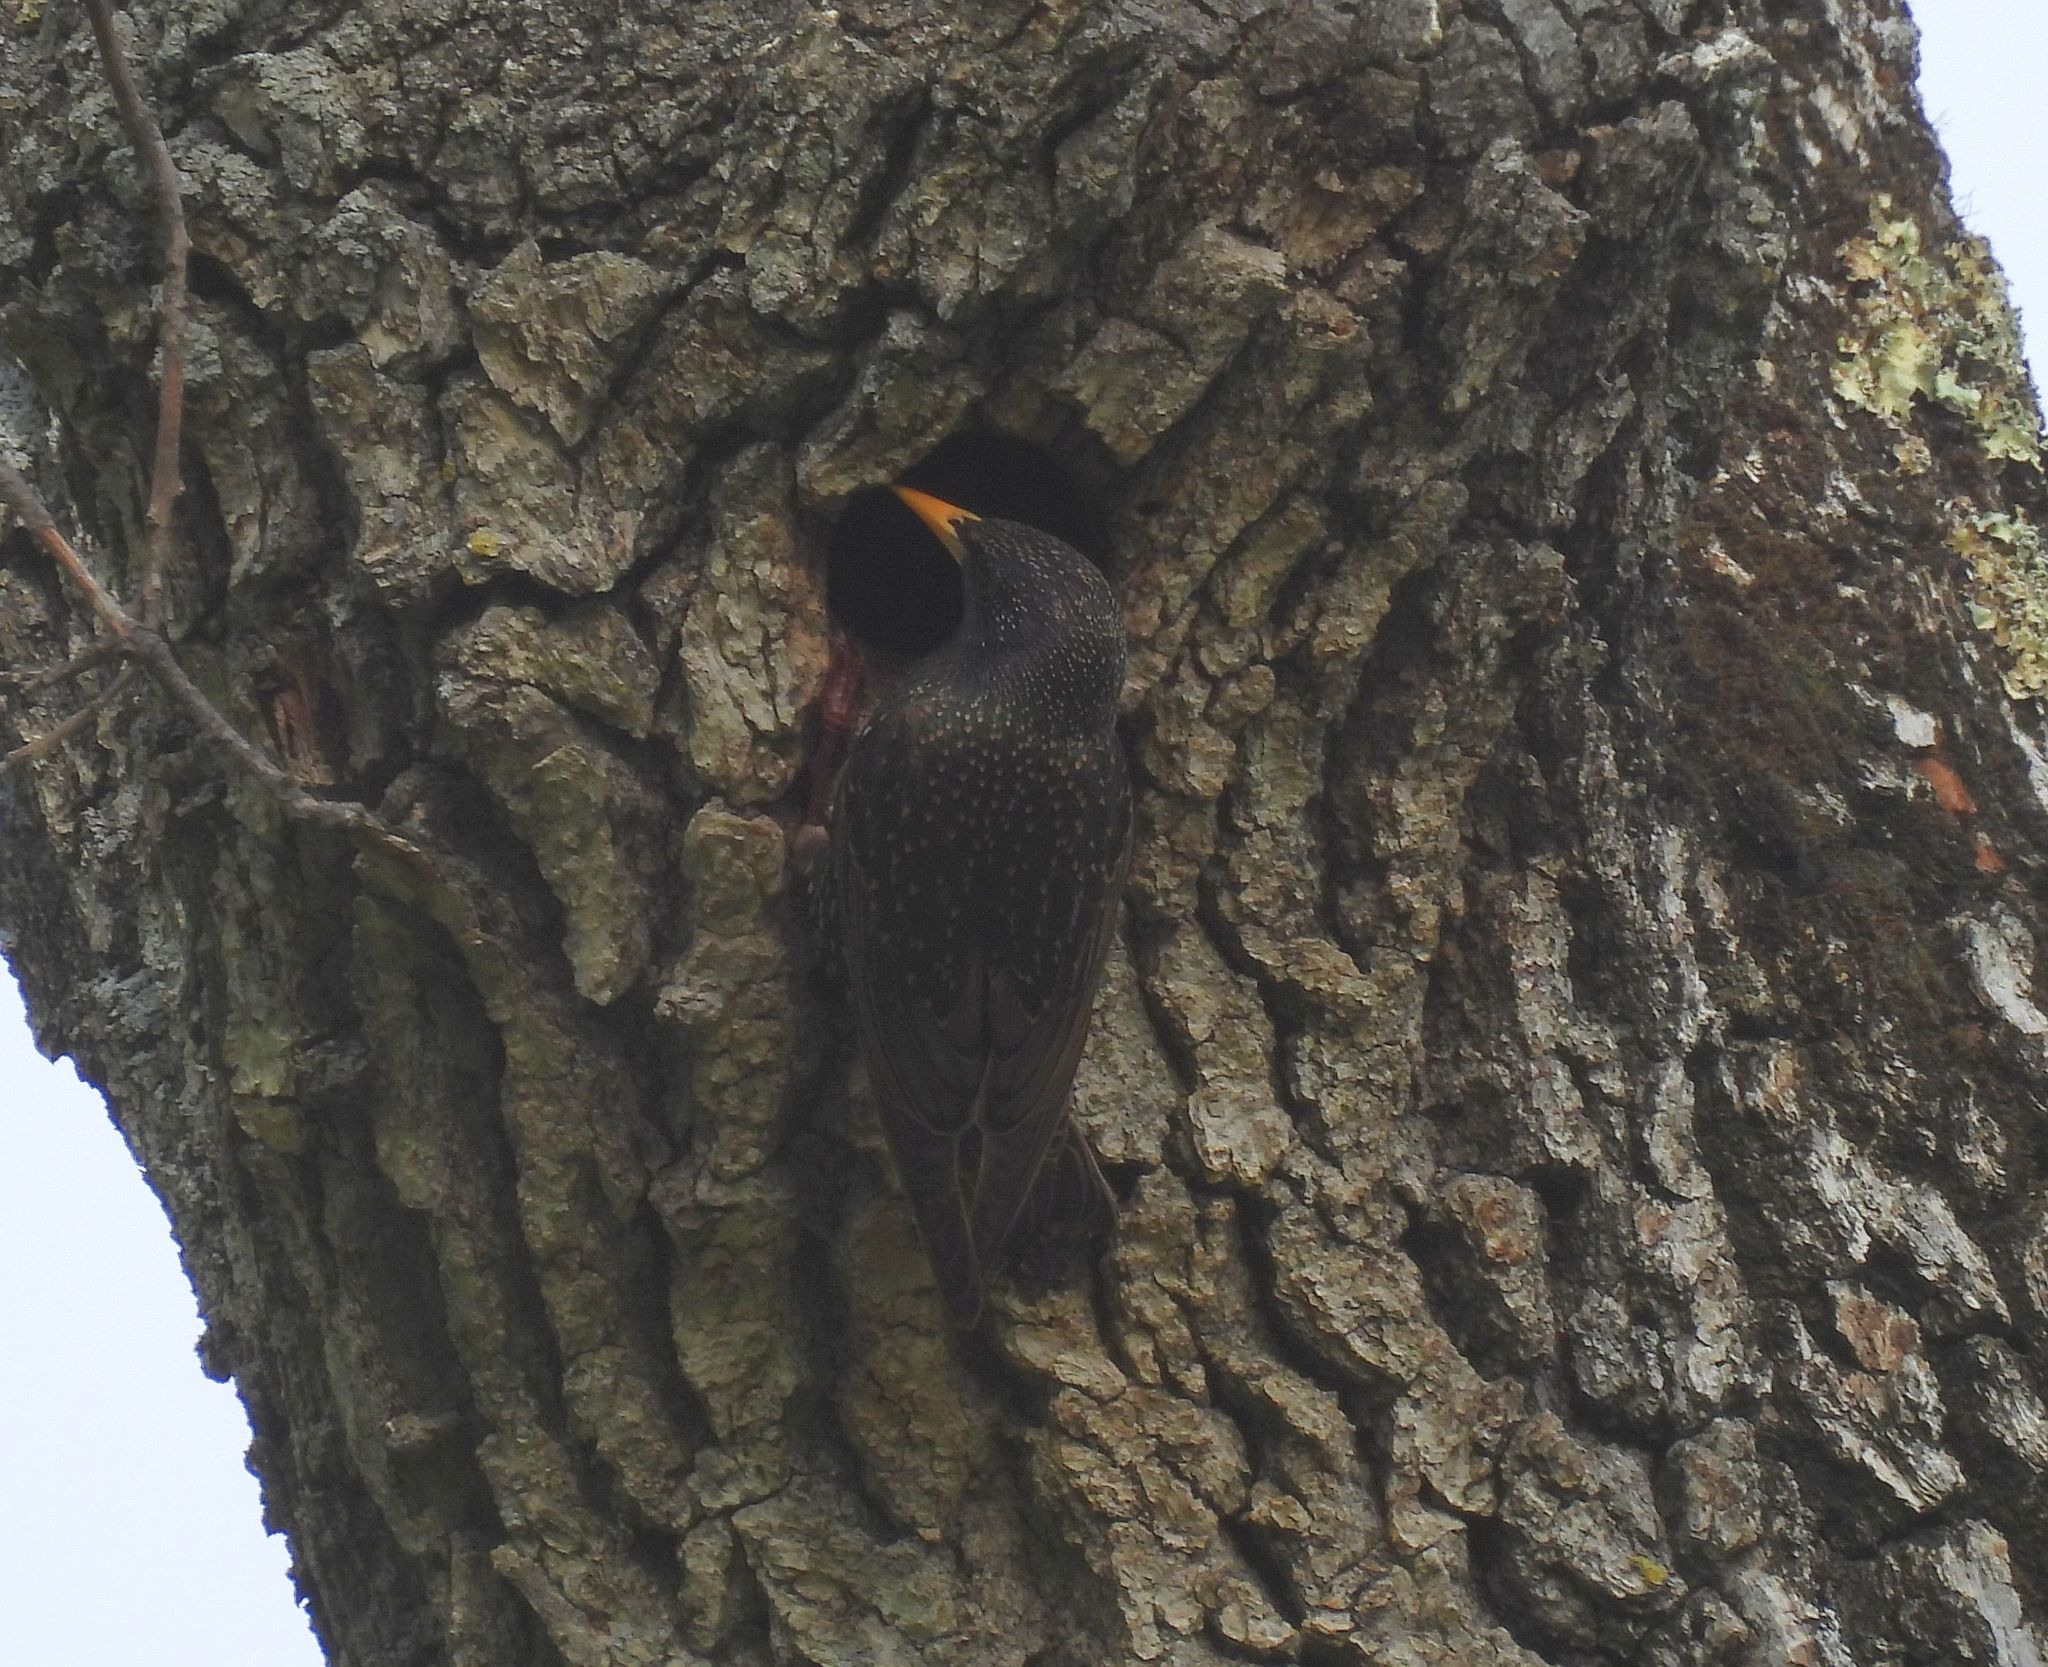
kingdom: Animalia
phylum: Chordata
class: Aves
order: Passeriformes
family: Sturnidae
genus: Sturnus
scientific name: Sturnus vulgaris
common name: Common starling
